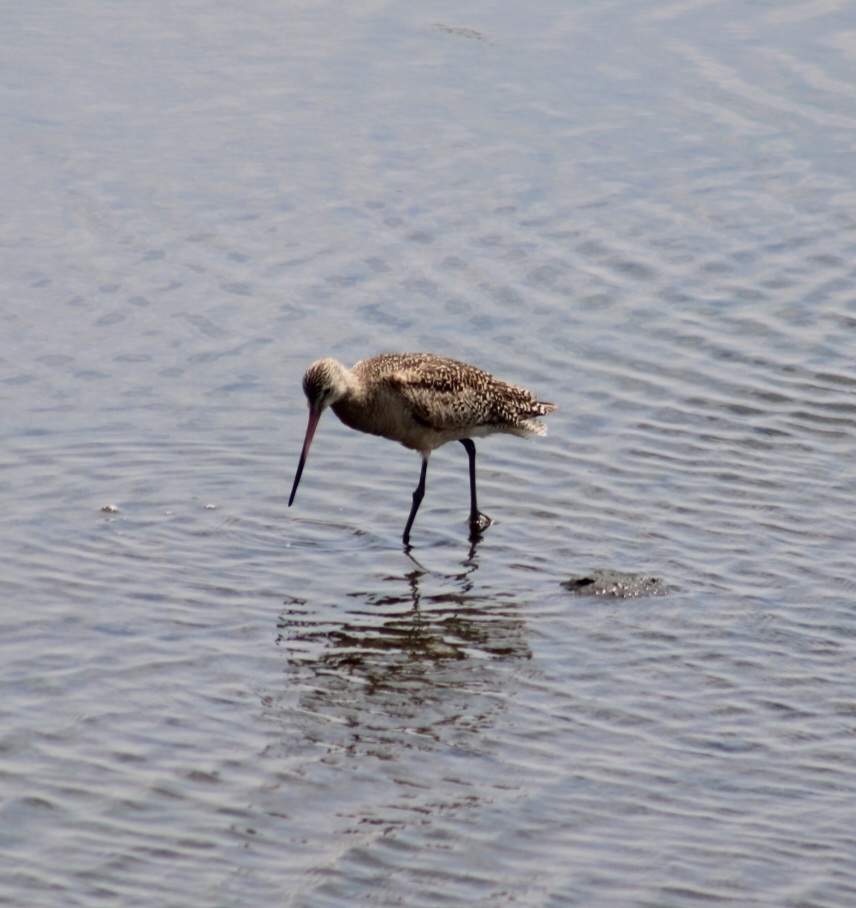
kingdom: Animalia
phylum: Chordata
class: Aves
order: Charadriiformes
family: Scolopacidae
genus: Limosa
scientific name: Limosa fedoa
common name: Marbled godwit
